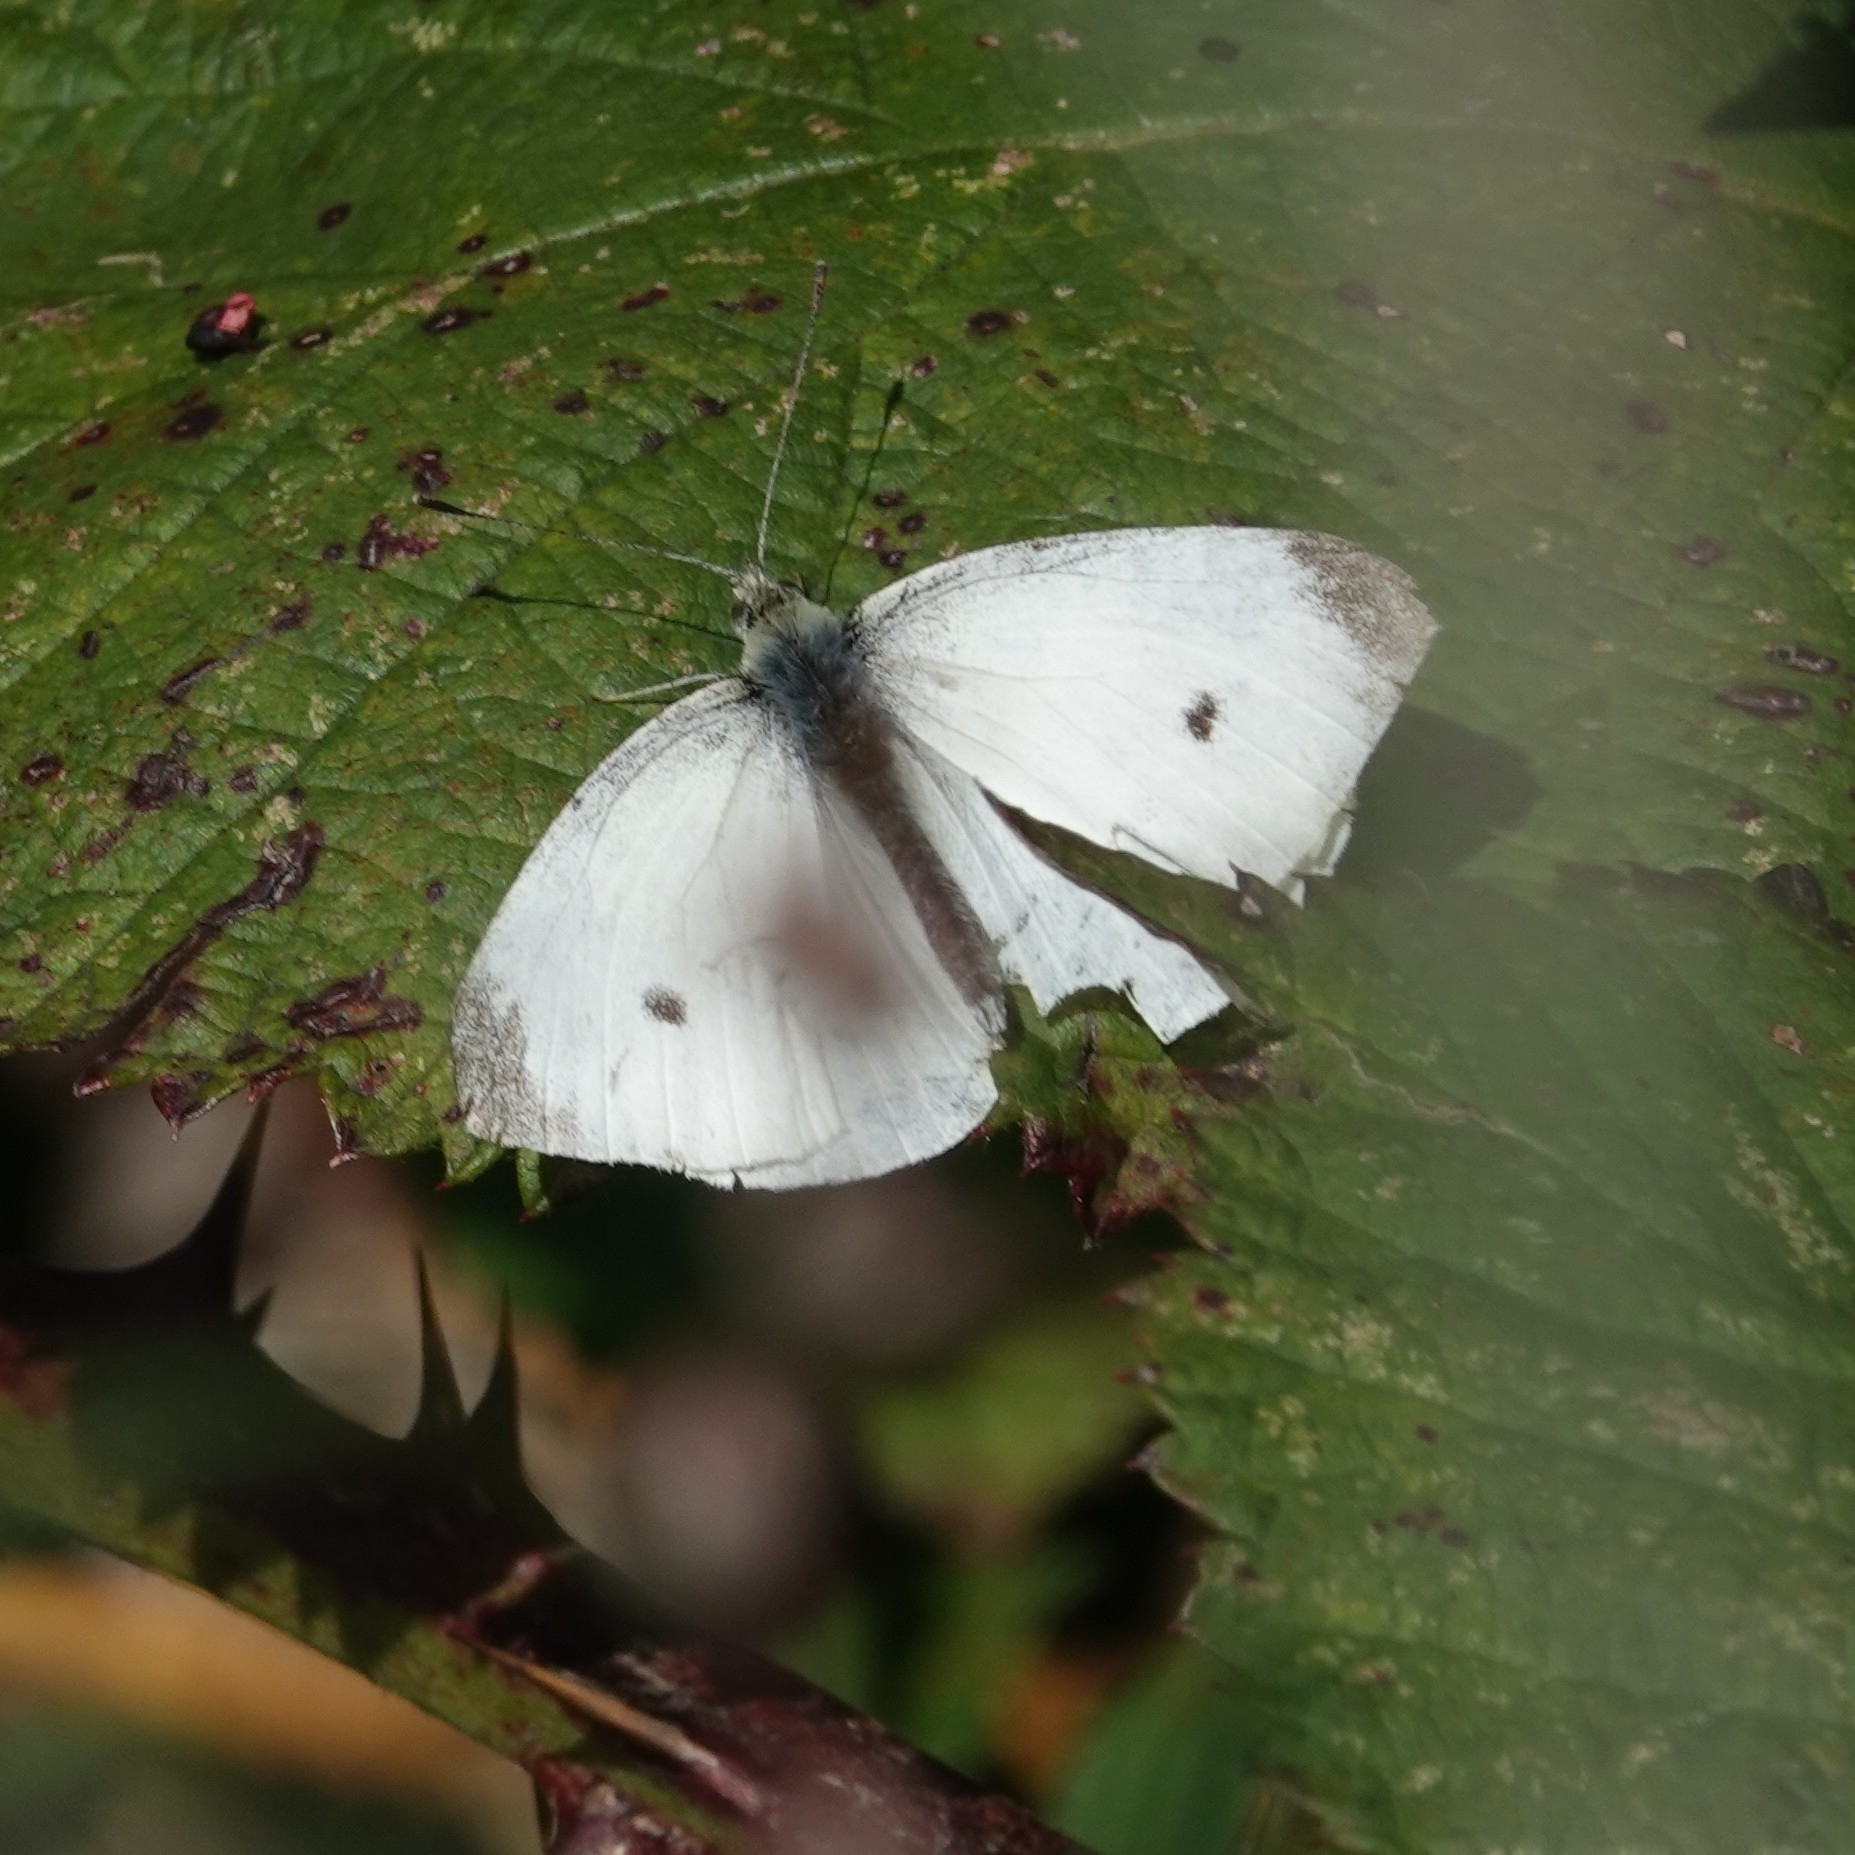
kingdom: Animalia
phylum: Arthropoda
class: Insecta
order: Lepidoptera
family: Pieridae
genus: Pieris
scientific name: Pieris rapae
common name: Small white
